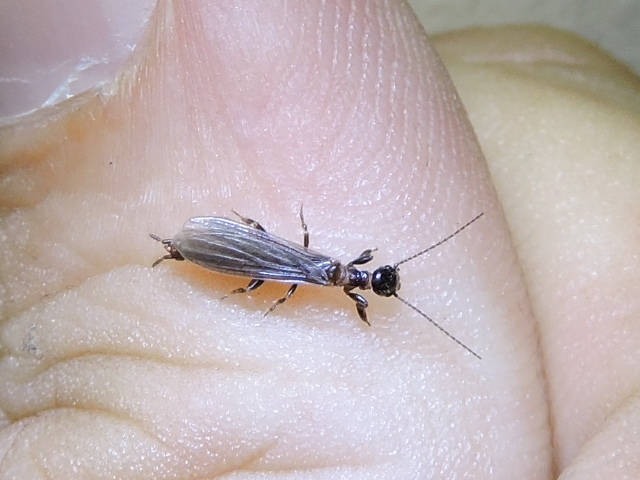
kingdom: Animalia
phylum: Arthropoda
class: Insecta
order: Embioptera
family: Oligotomidae
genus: Oligotoma
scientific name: Oligotoma nigra
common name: Black webspinner
